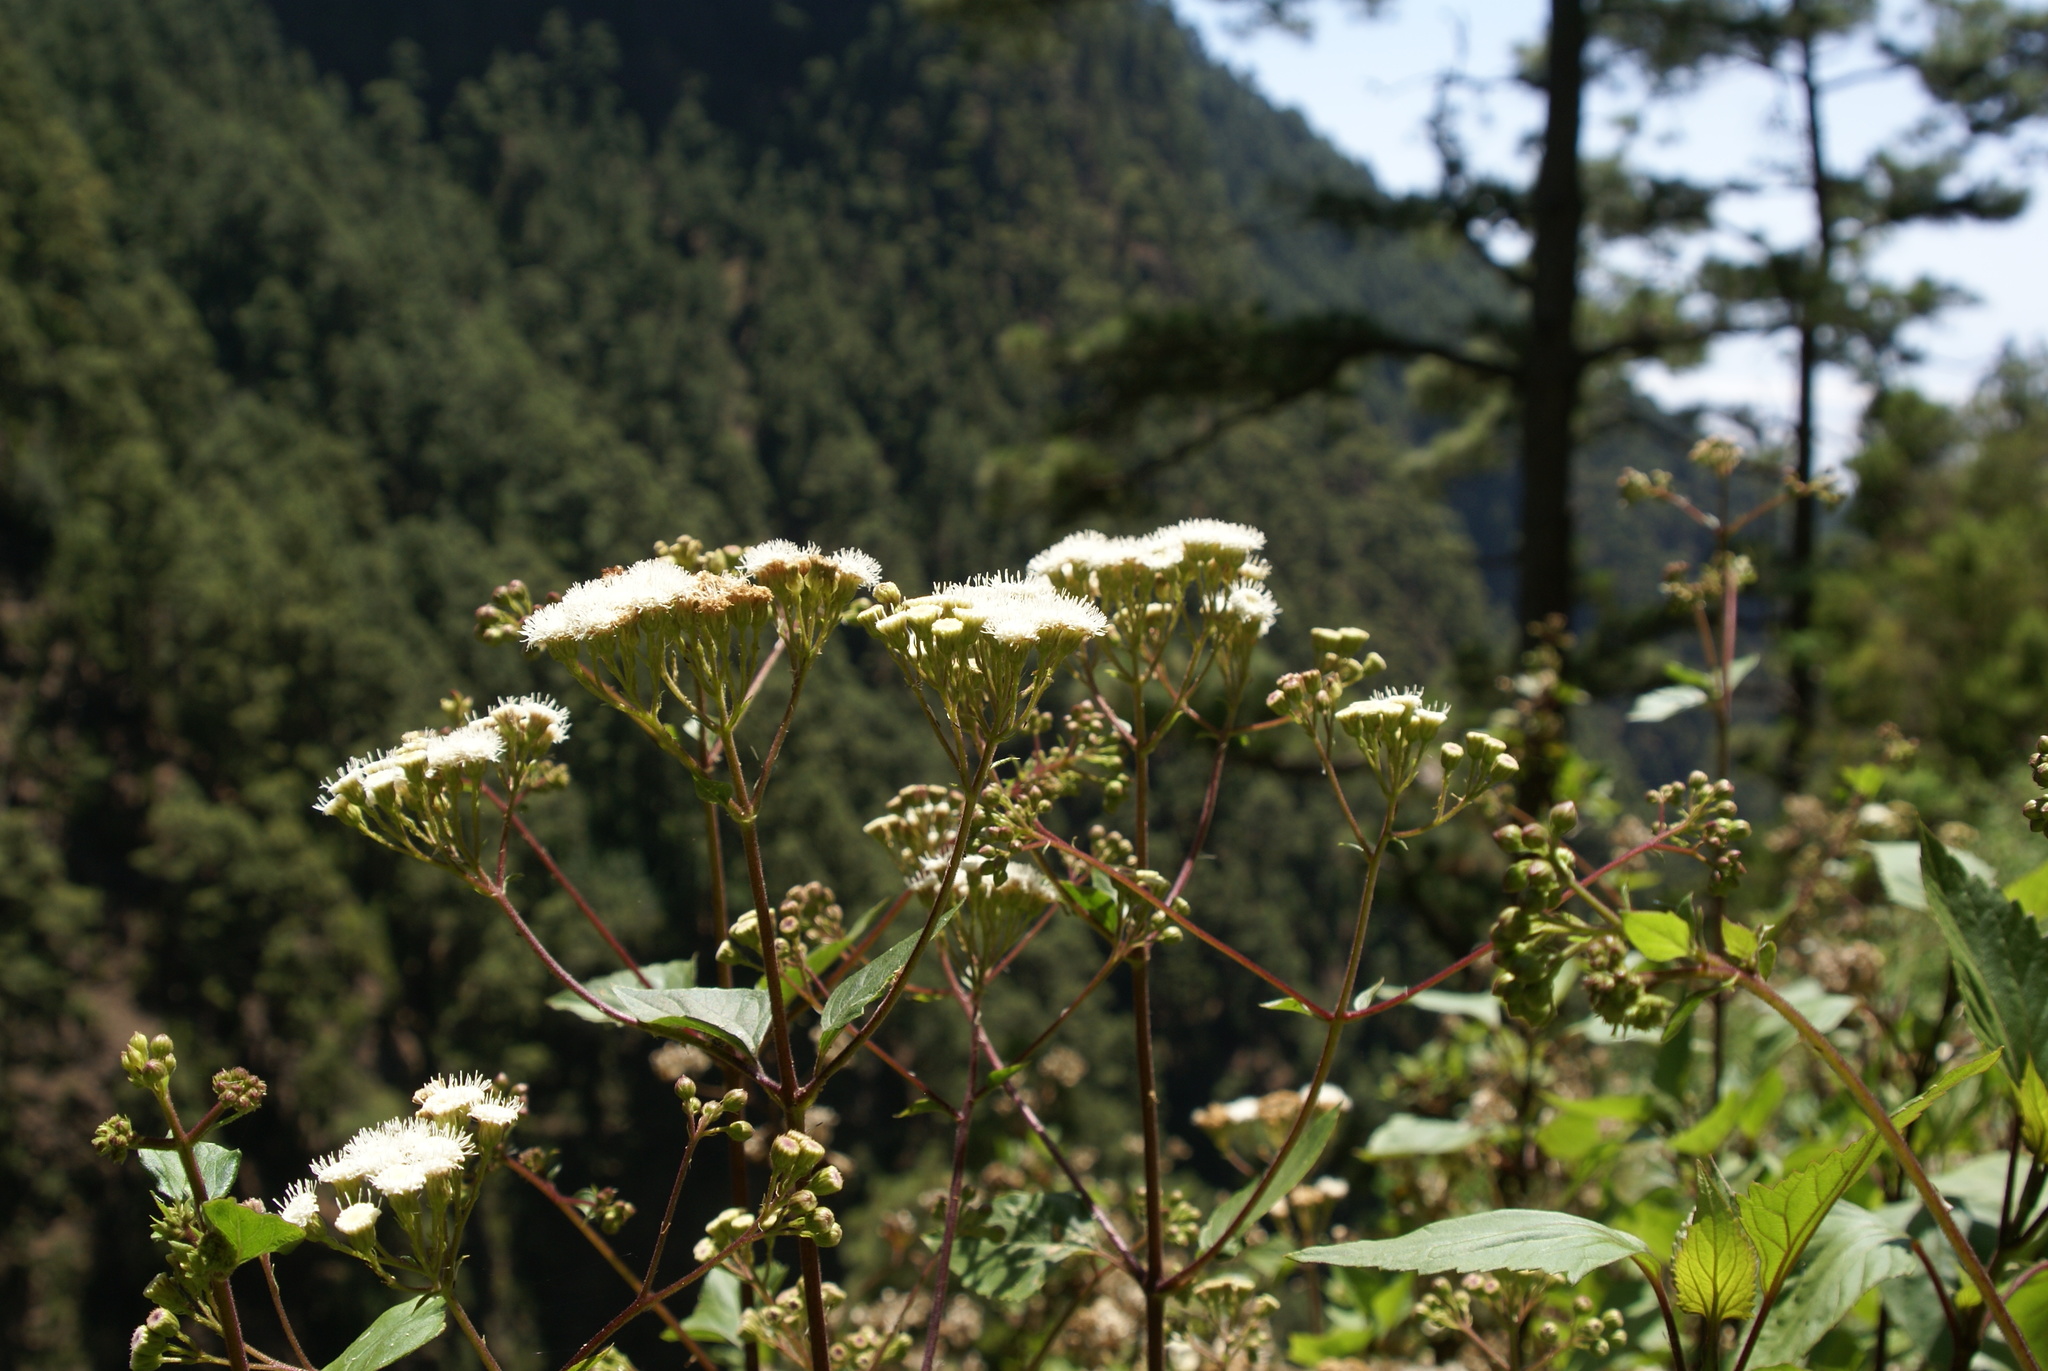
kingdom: Plantae
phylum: Tracheophyta
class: Magnoliopsida
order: Asterales
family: Asteraceae
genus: Ageratina
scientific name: Ageratina adenophora
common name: Sticky snakeroot
